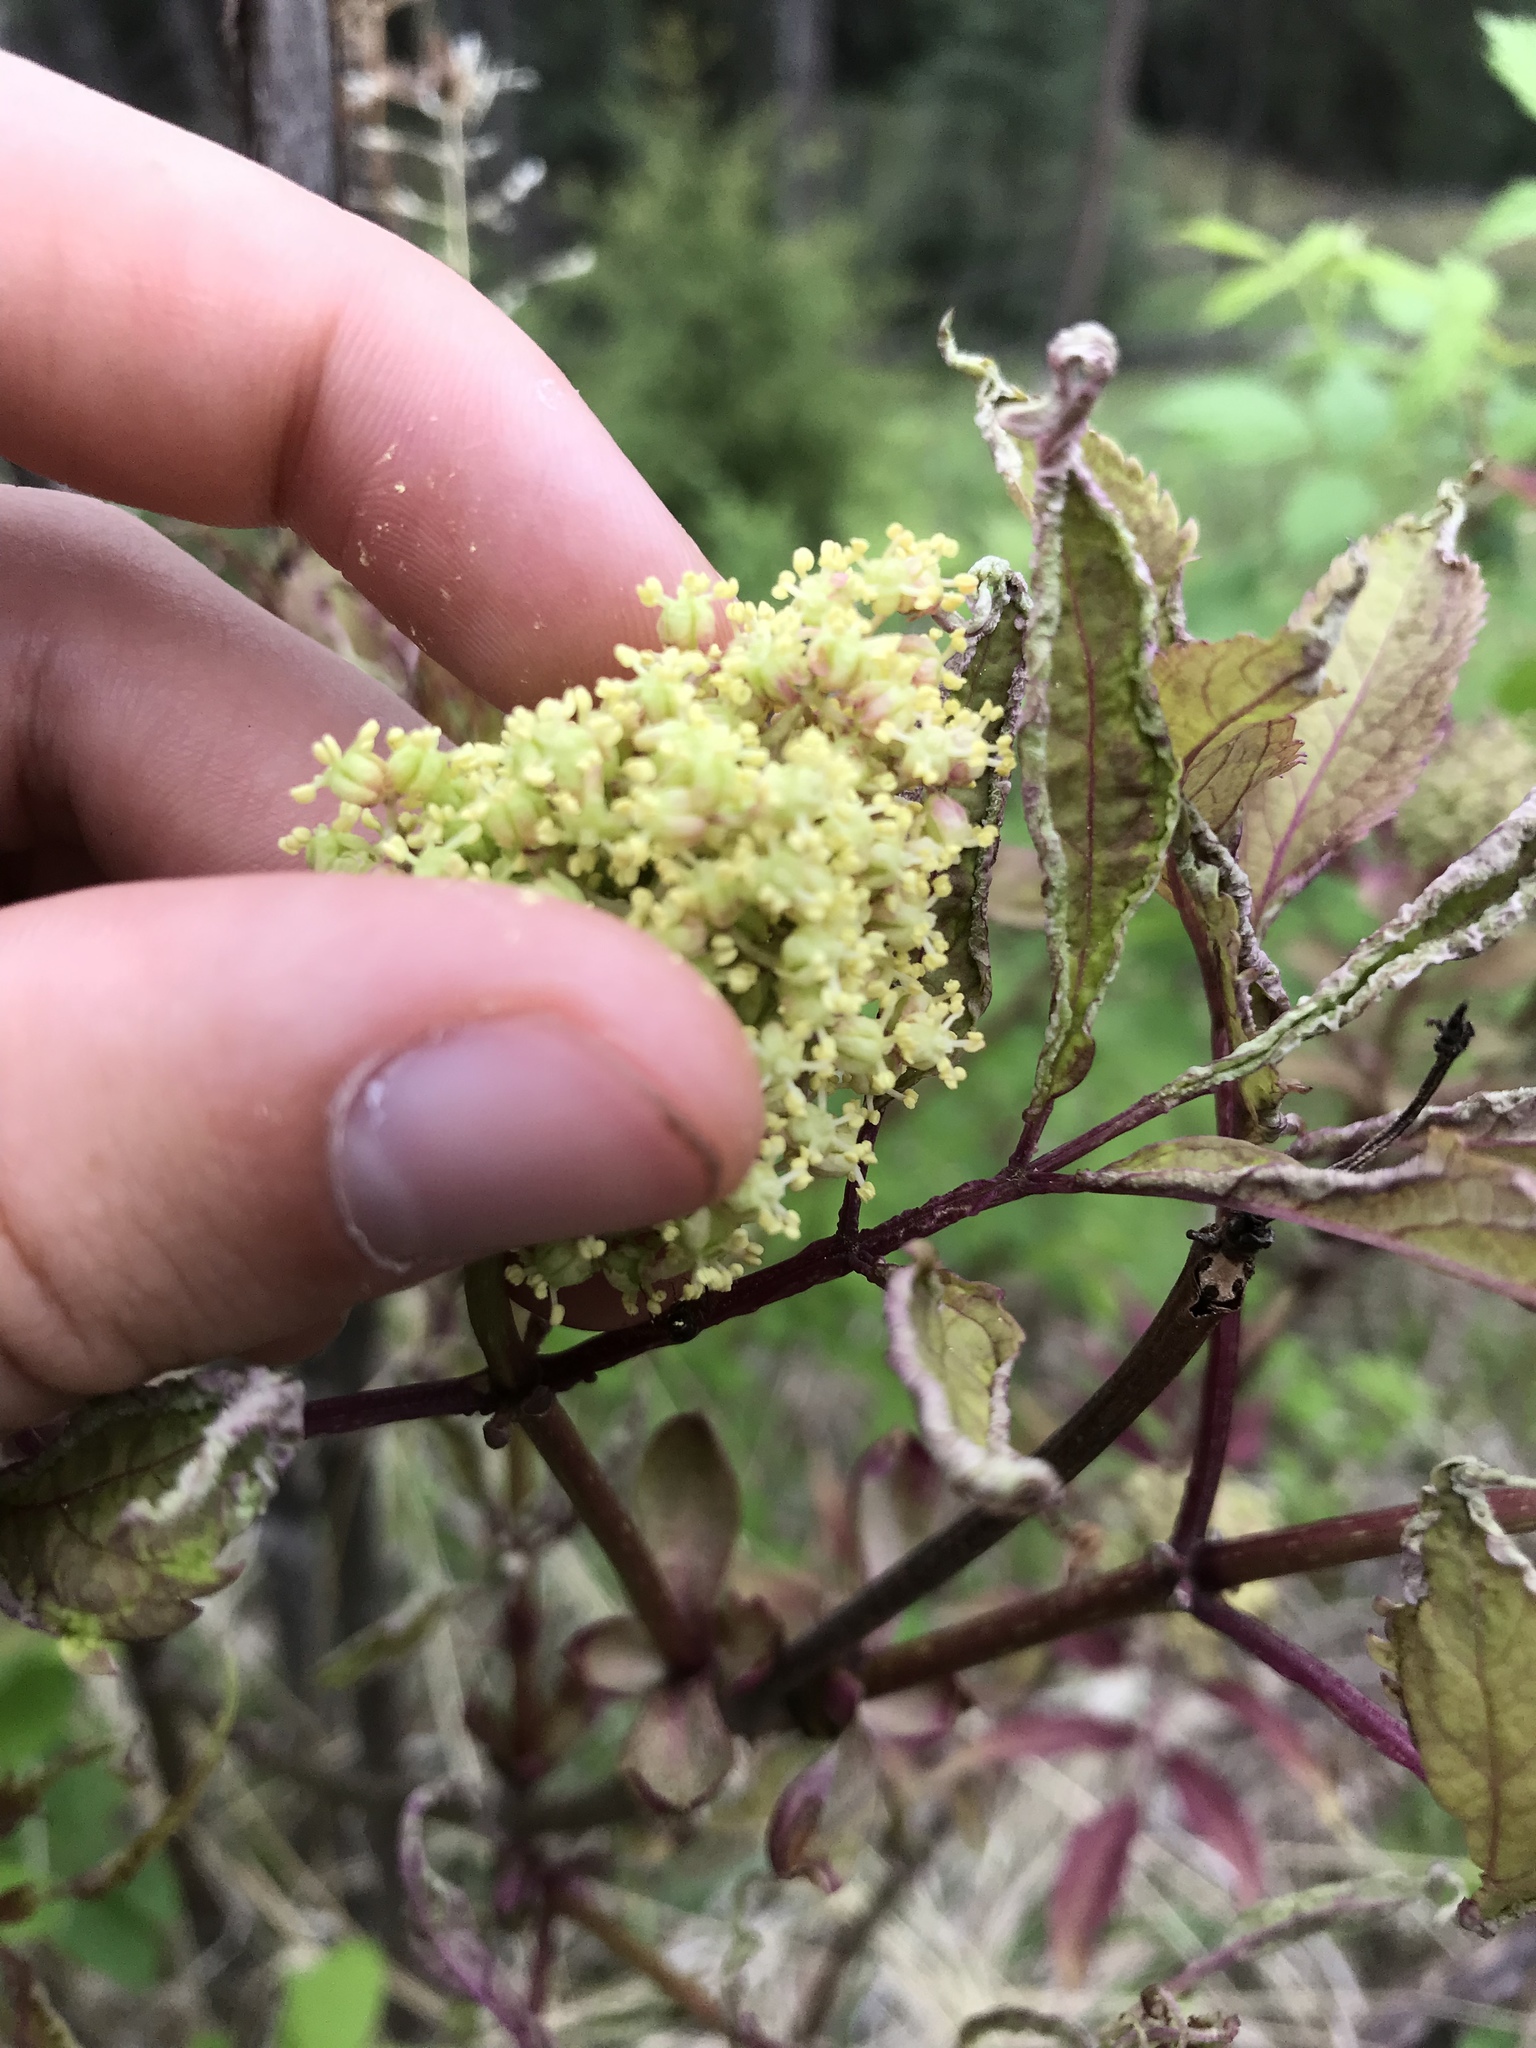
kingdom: Plantae
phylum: Tracheophyta
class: Magnoliopsida
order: Dipsacales
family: Viburnaceae
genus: Sambucus
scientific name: Sambucus racemosa
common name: Red-berried elder
